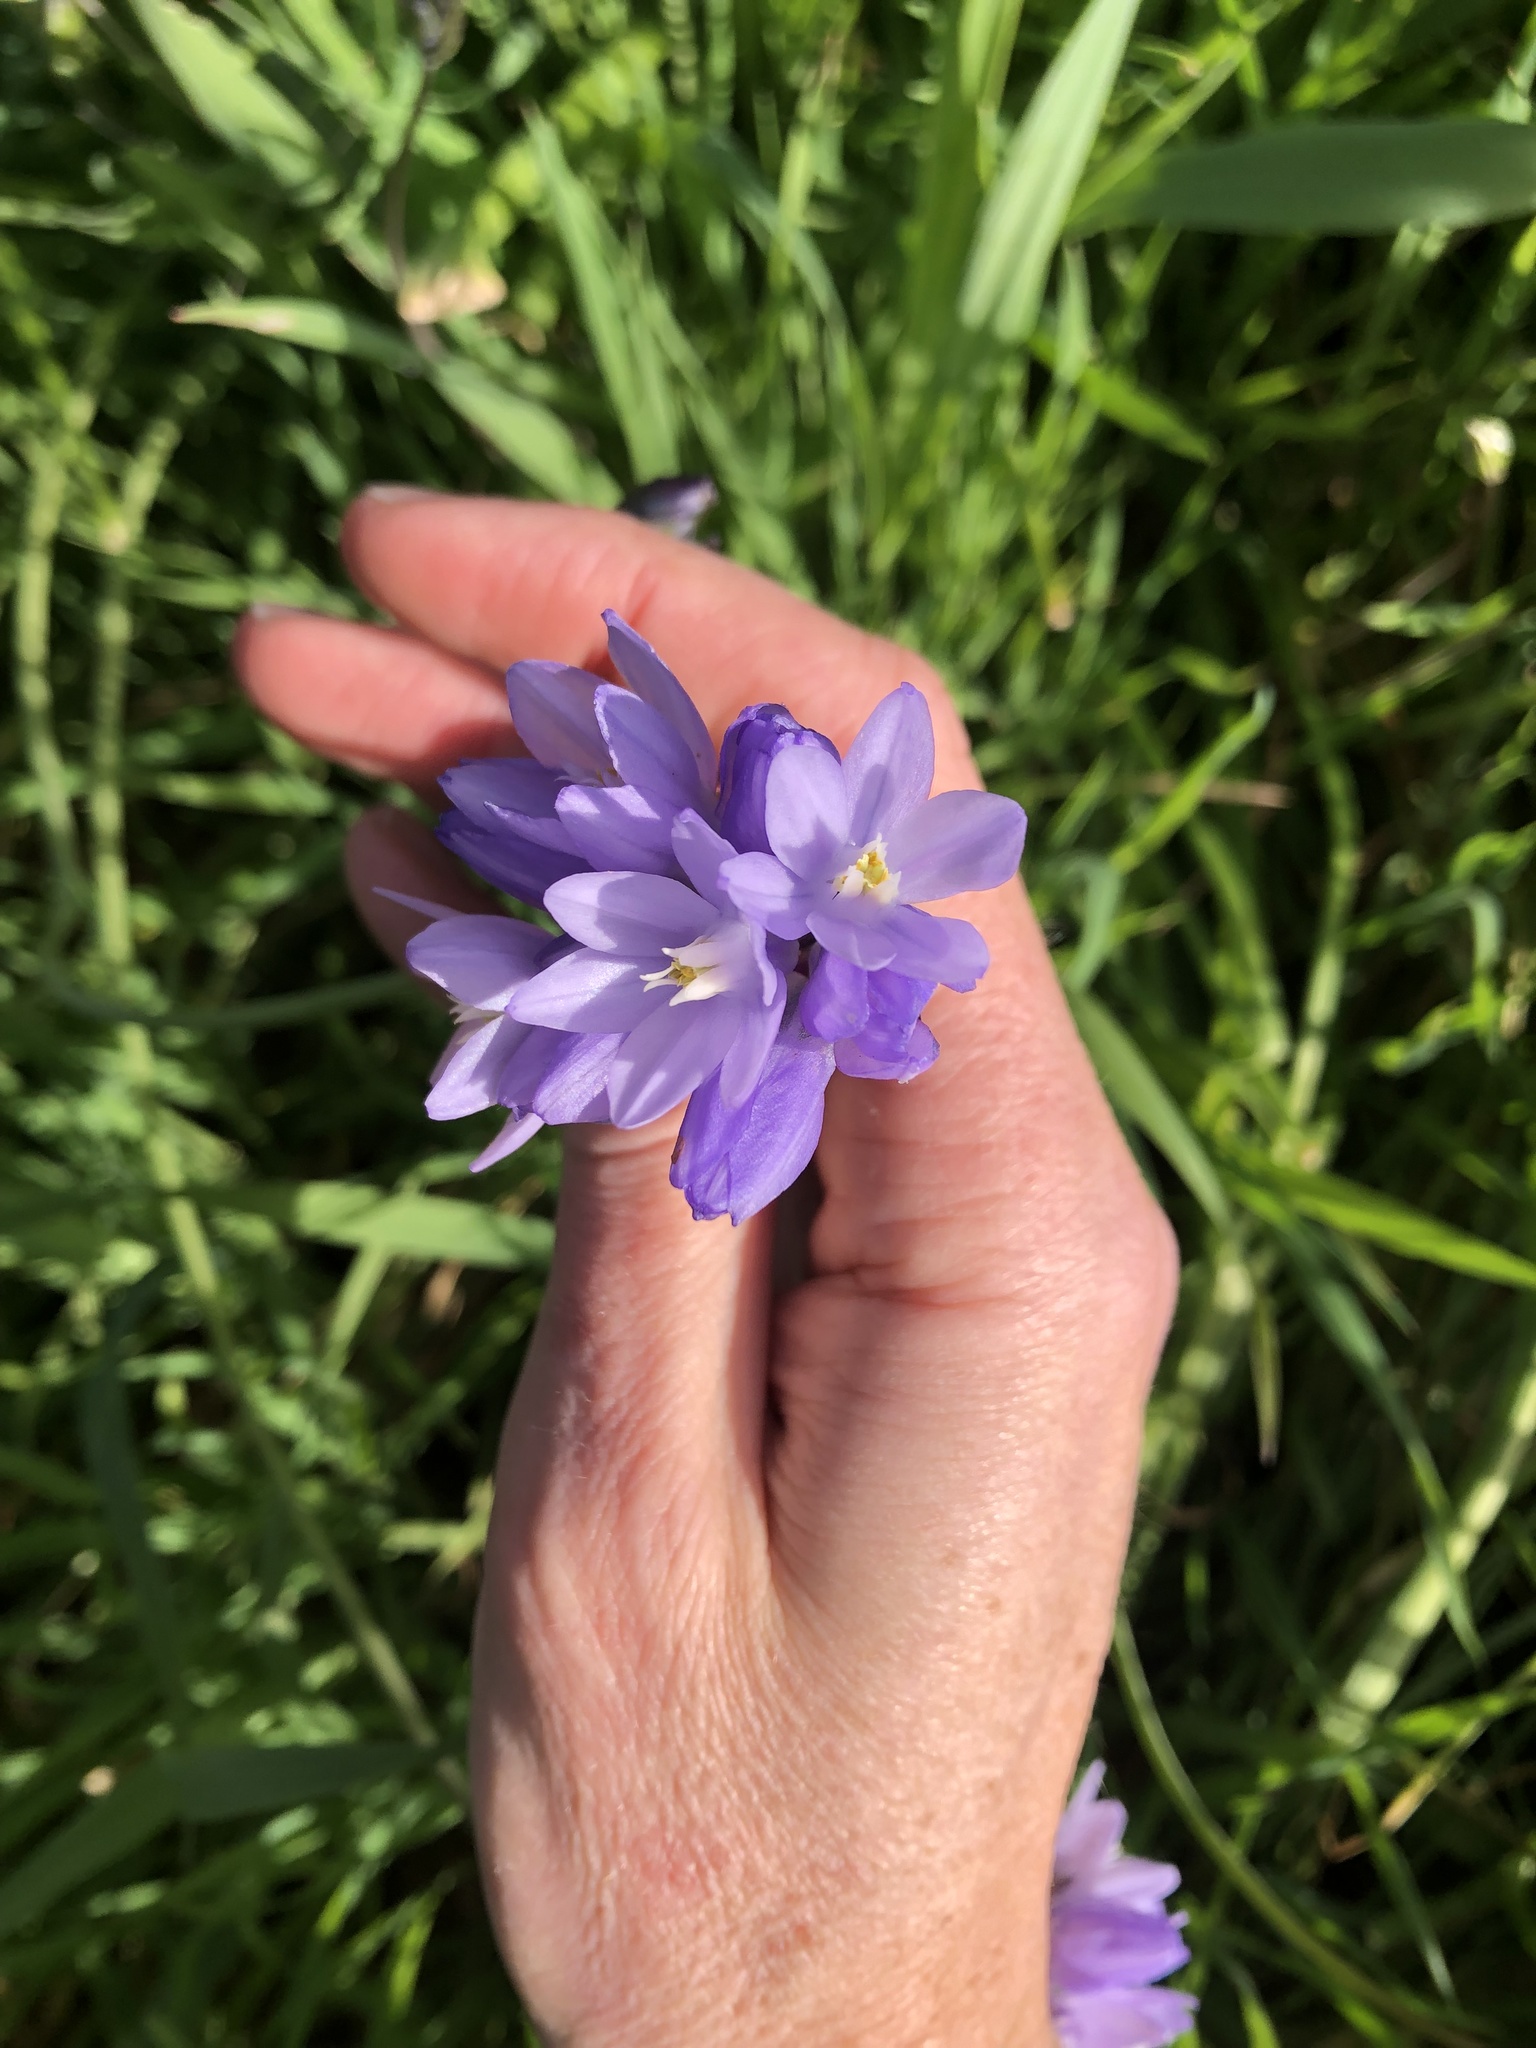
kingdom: Plantae
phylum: Tracheophyta
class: Liliopsida
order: Asparagales
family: Asparagaceae
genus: Dipterostemon
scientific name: Dipterostemon capitatus
